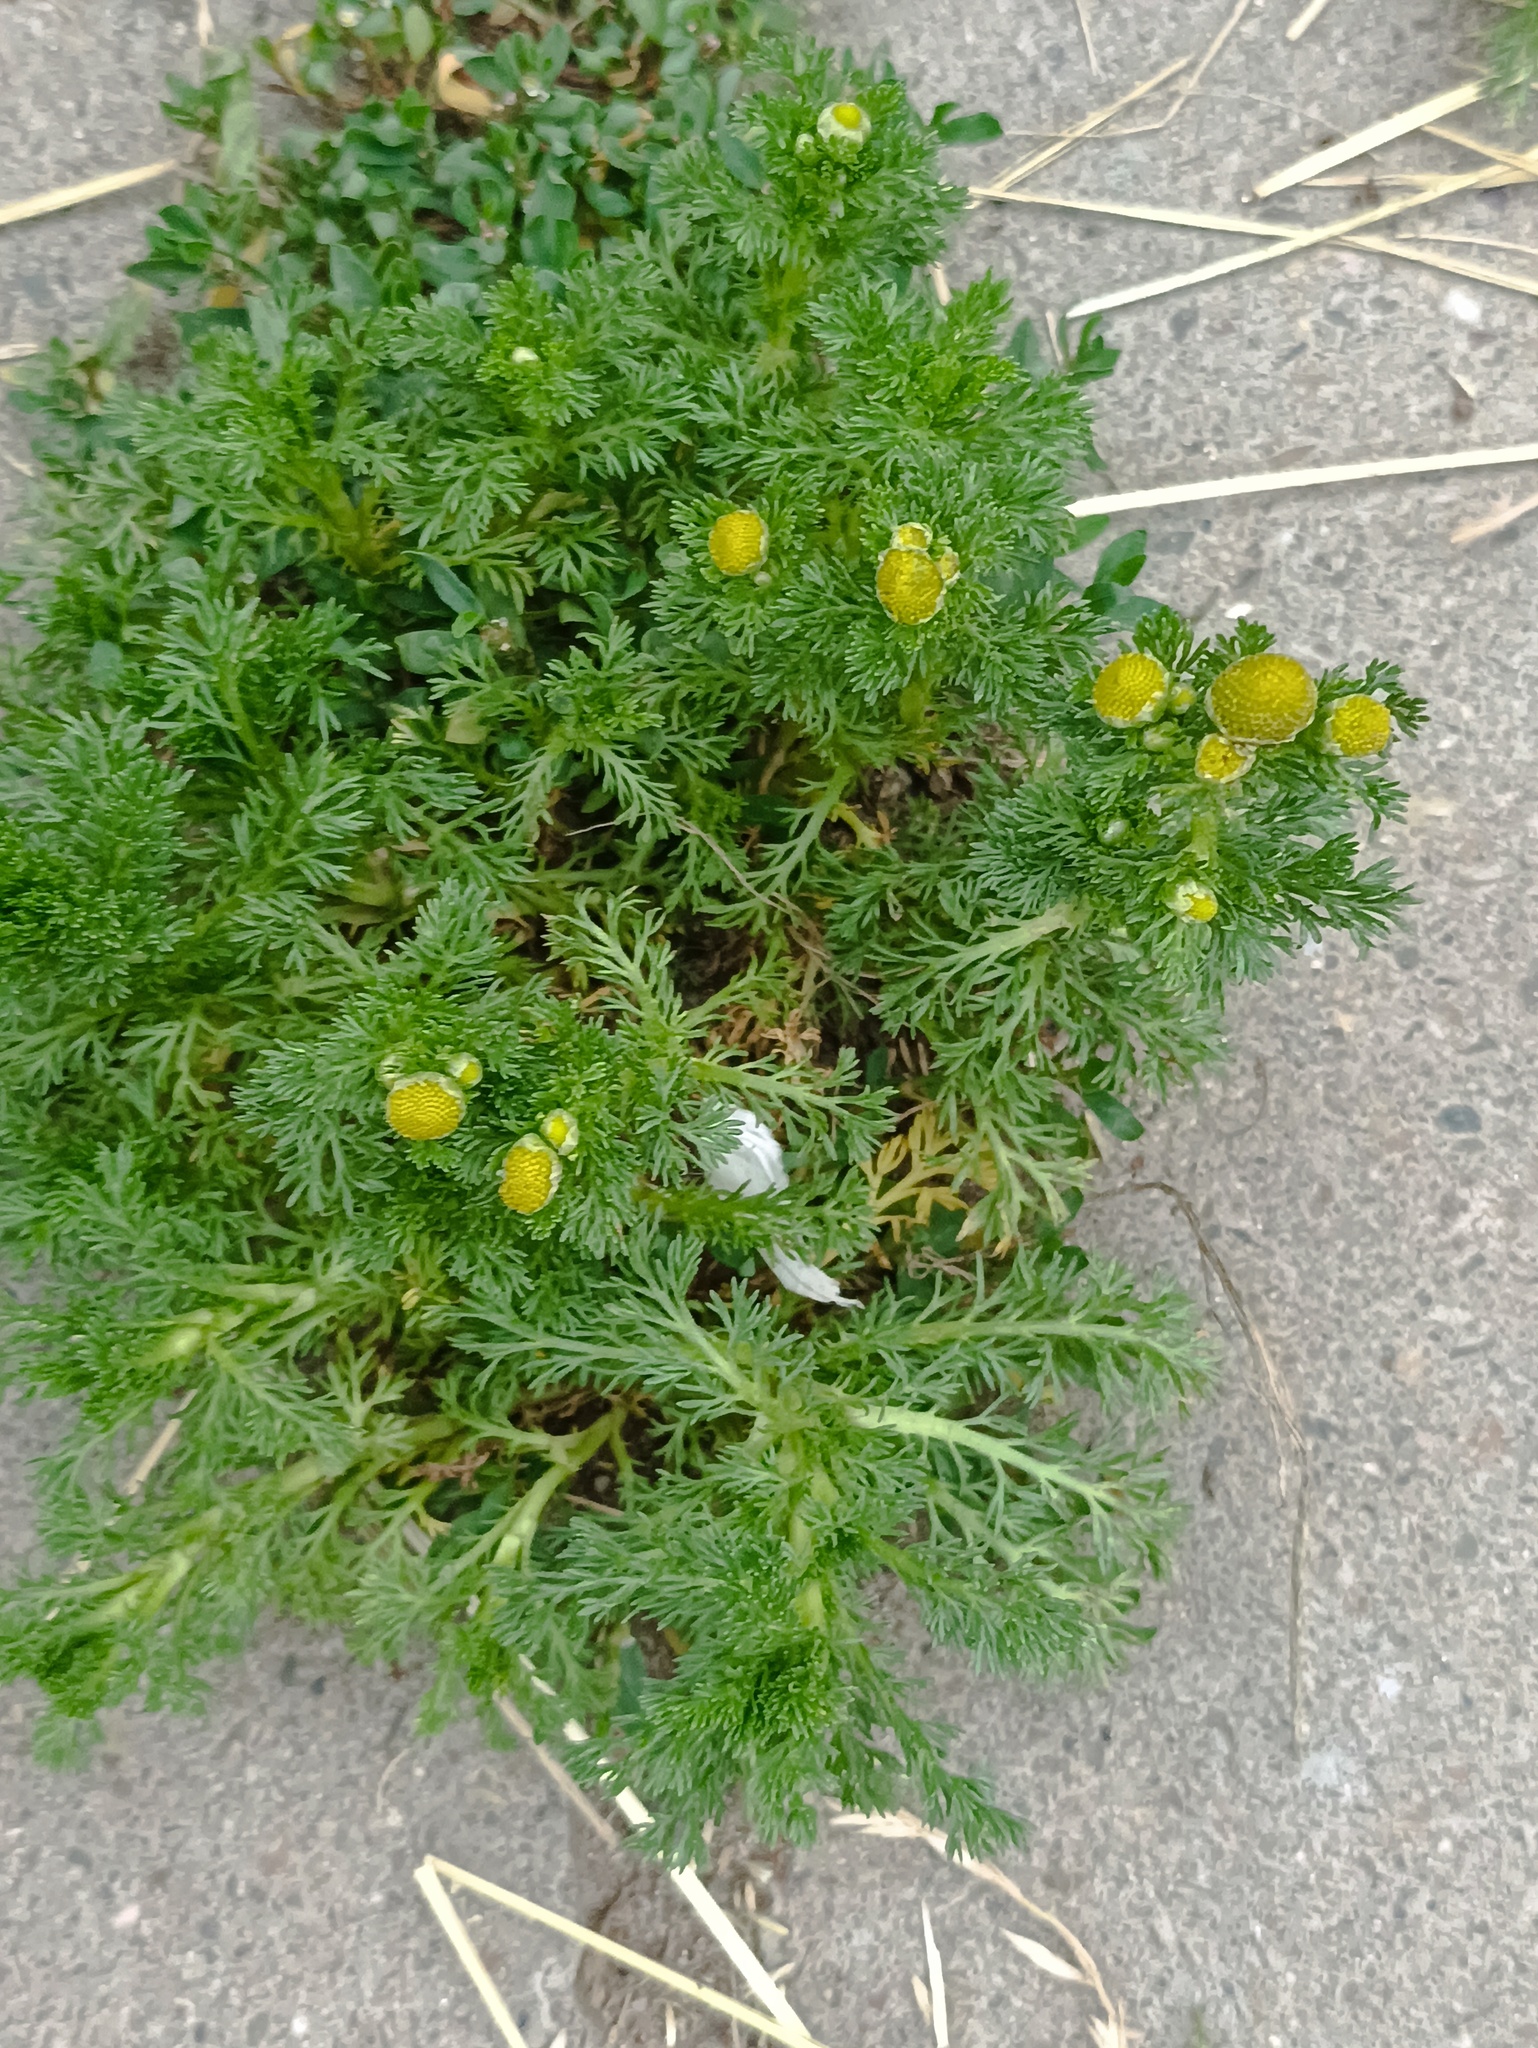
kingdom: Plantae
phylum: Tracheophyta
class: Magnoliopsida
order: Asterales
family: Asteraceae
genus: Matricaria
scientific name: Matricaria discoidea
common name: Disc mayweed
